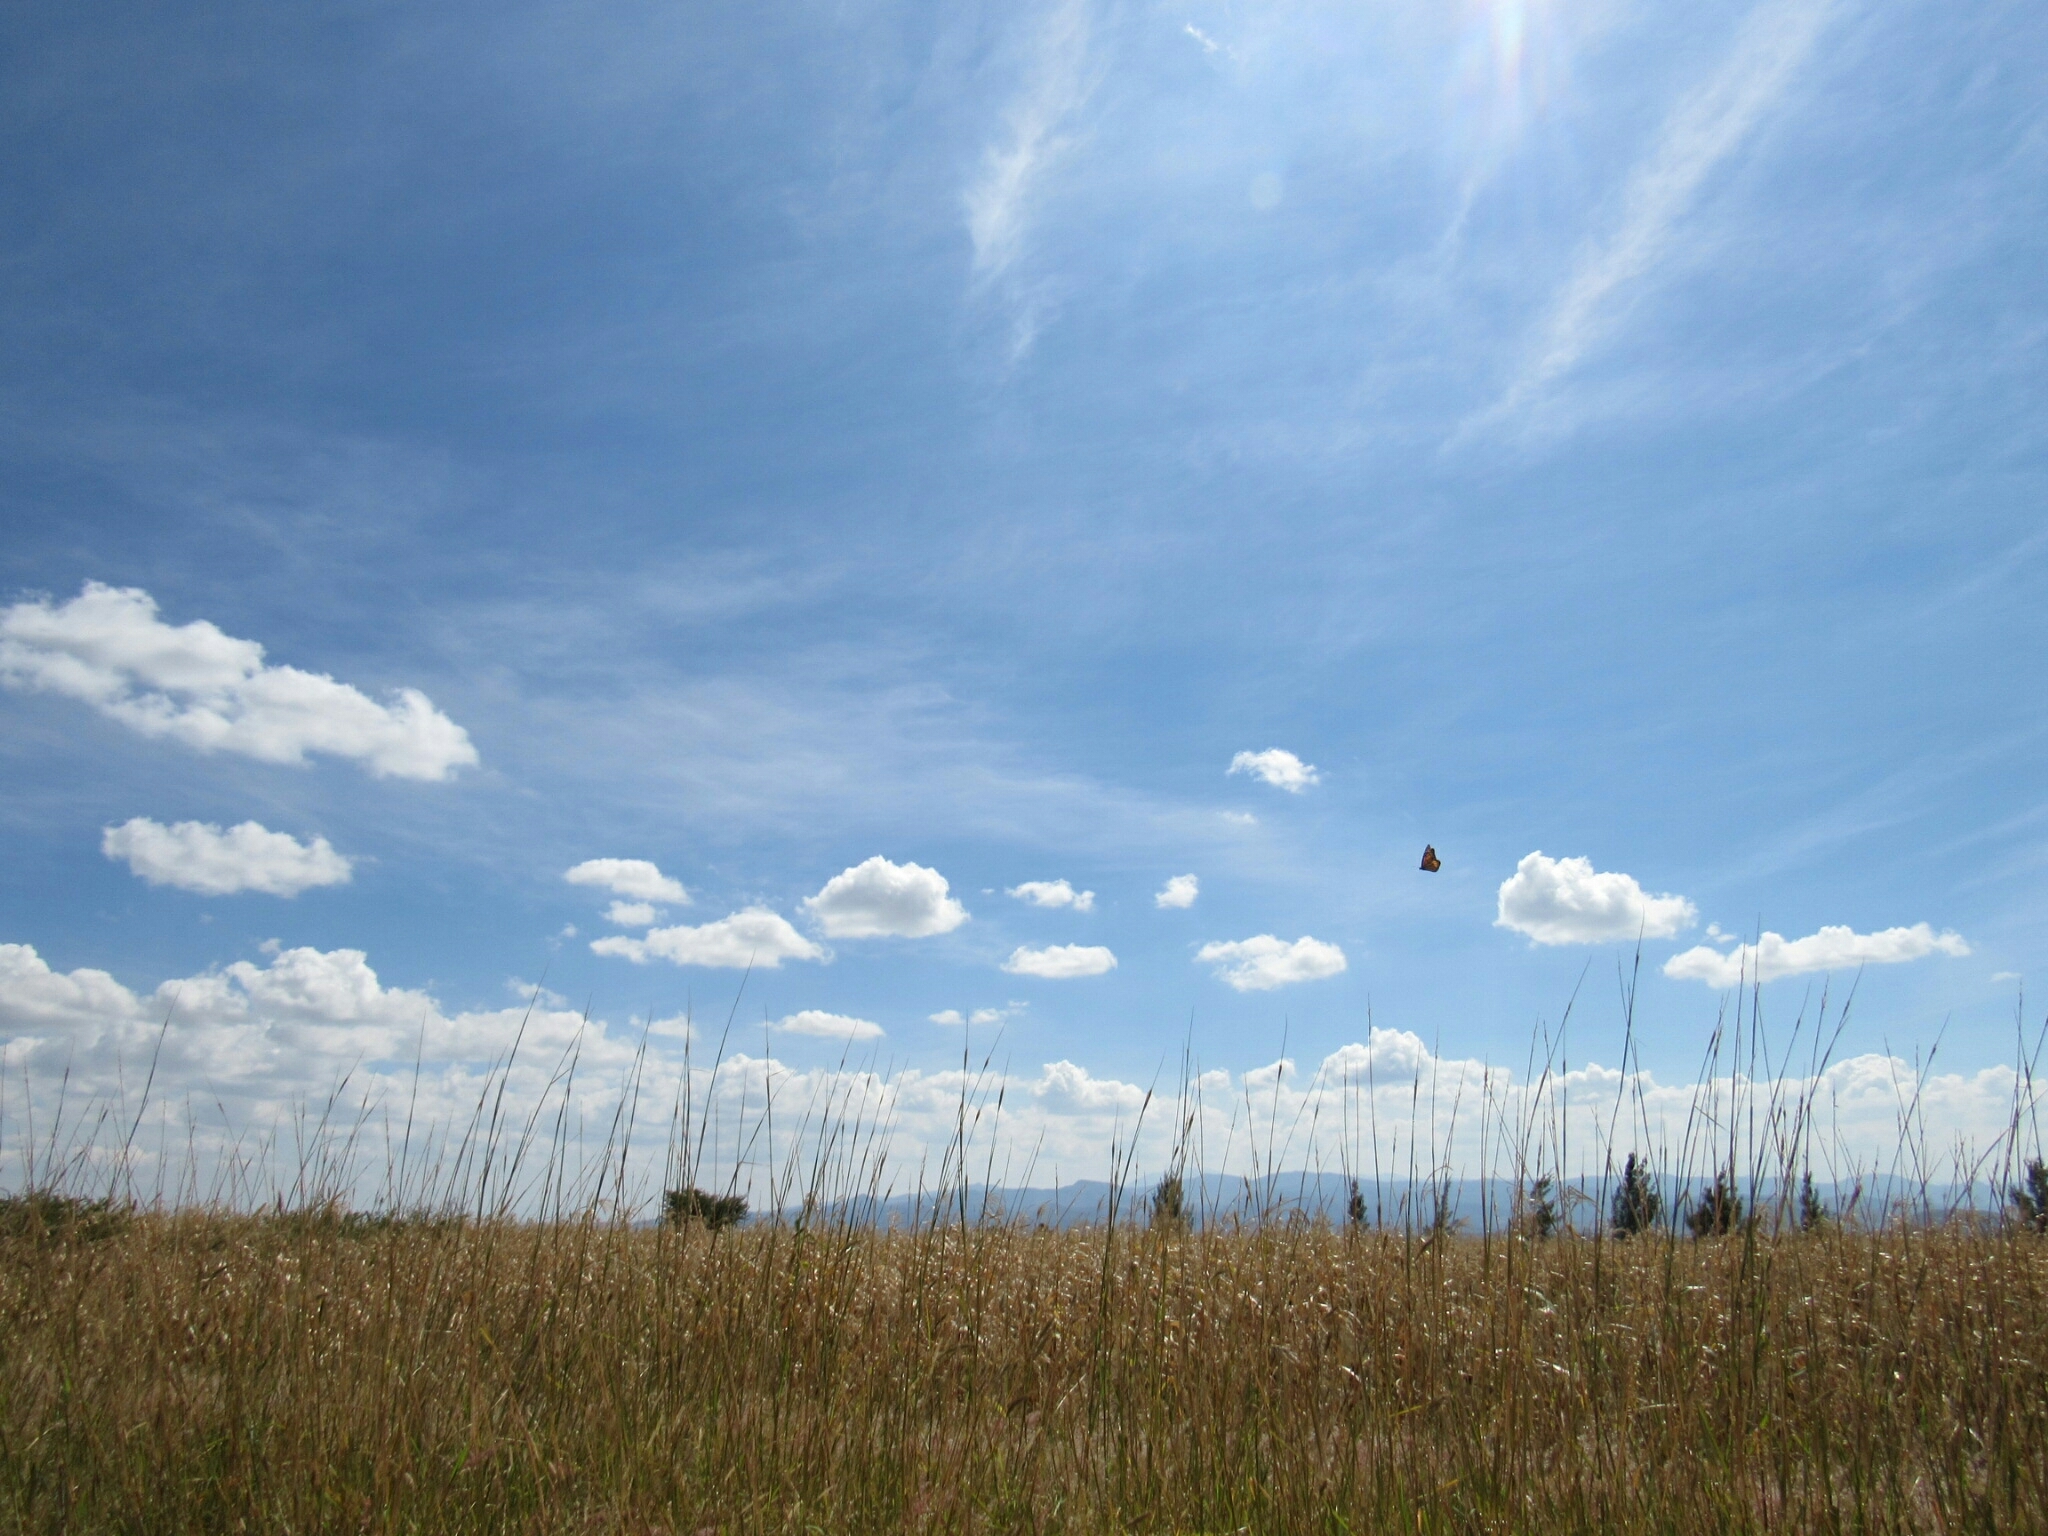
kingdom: Animalia
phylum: Arthropoda
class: Insecta
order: Lepidoptera
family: Nymphalidae
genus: Danaus
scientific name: Danaus plexippus
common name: Monarch
